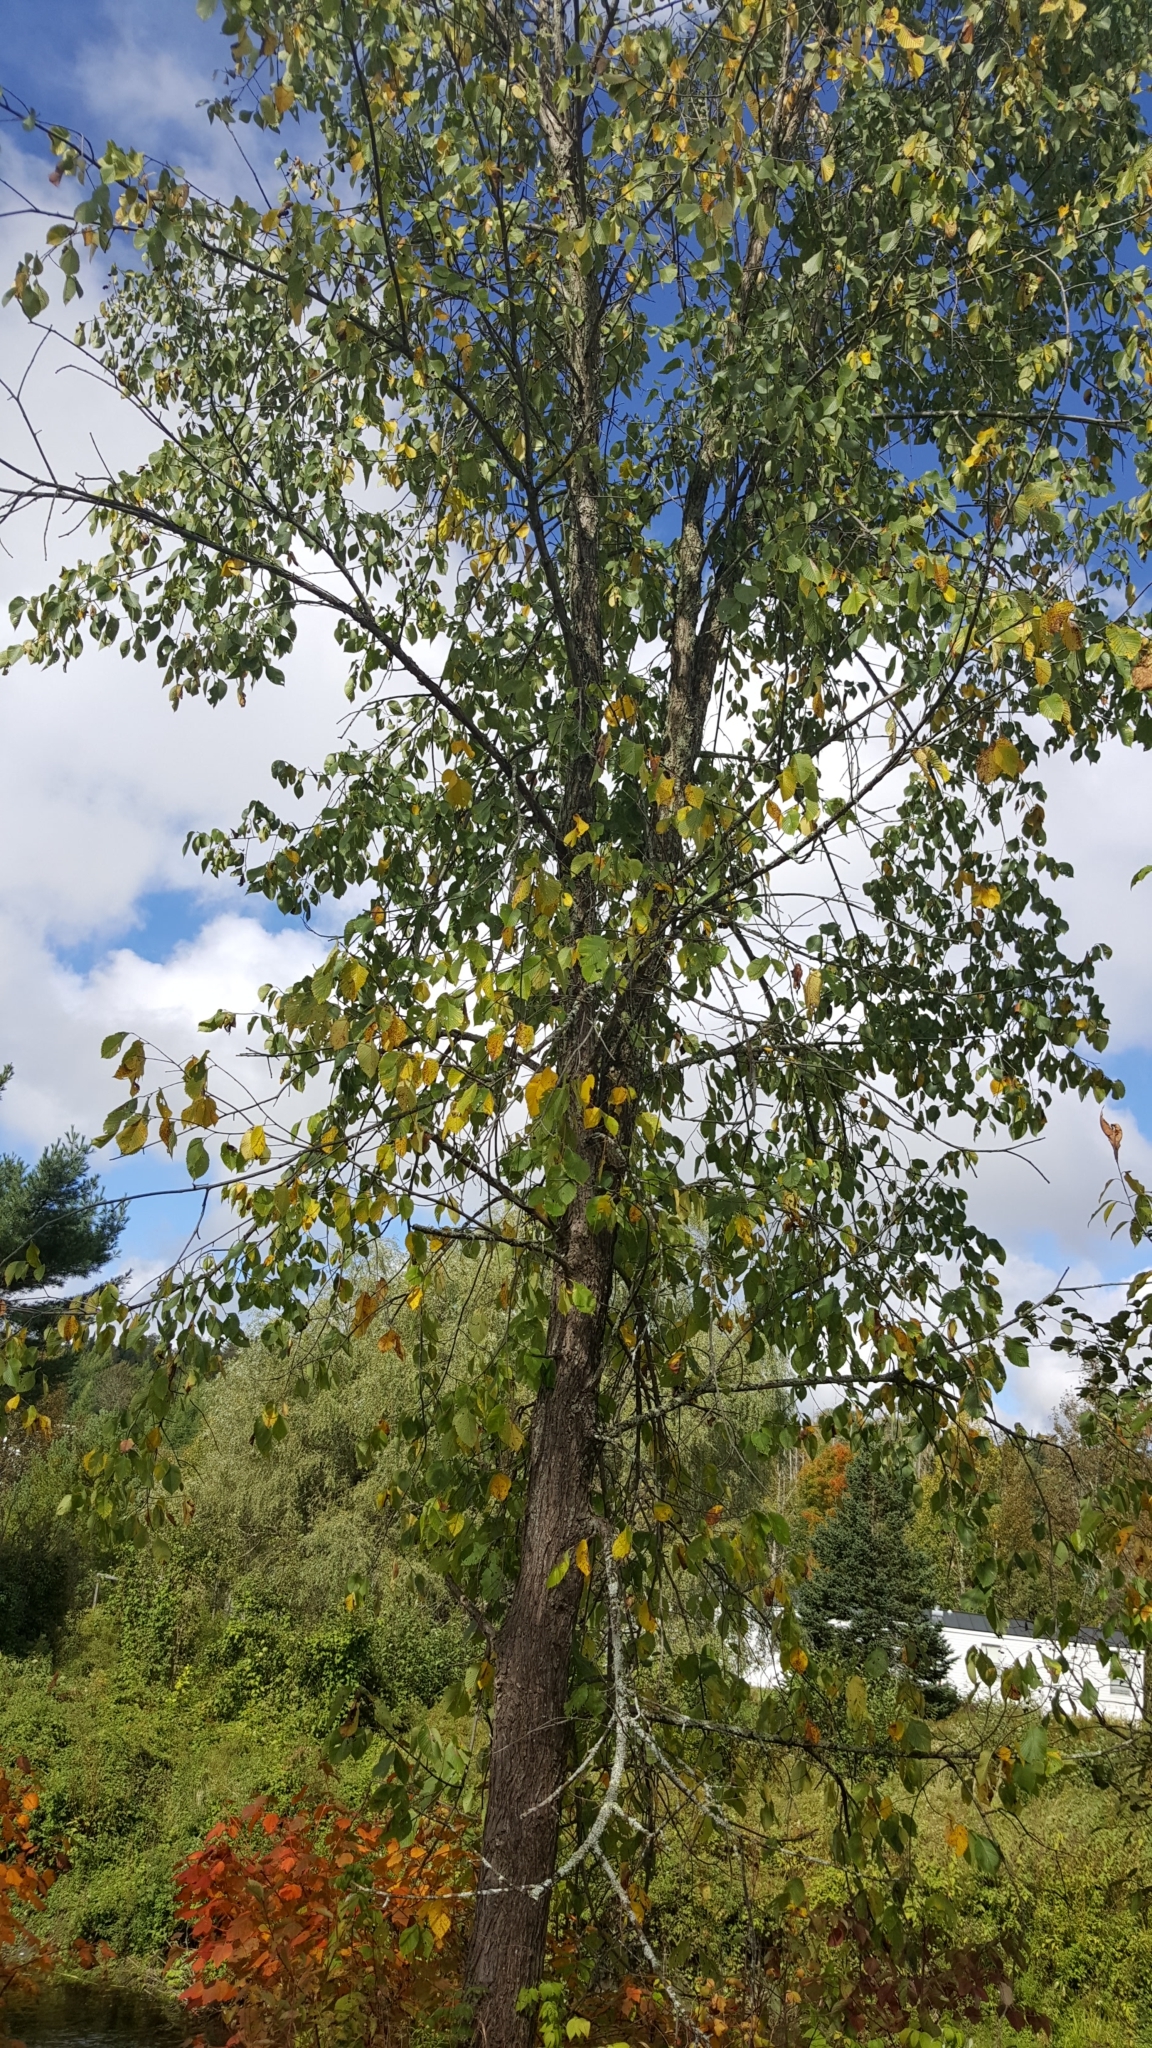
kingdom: Plantae
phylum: Tracheophyta
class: Magnoliopsida
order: Rosales
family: Ulmaceae
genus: Ulmus
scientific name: Ulmus americana
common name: American elm
